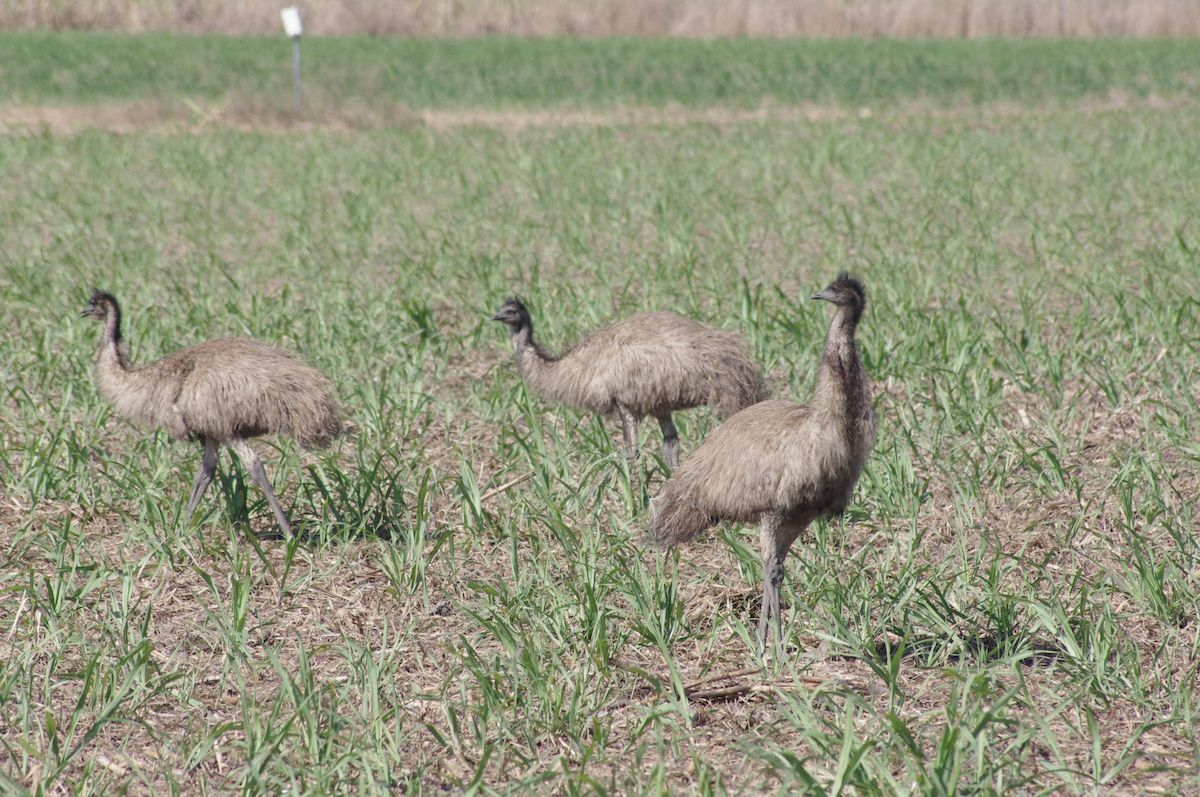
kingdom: Animalia
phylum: Chordata
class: Aves
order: Casuariiformes
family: Dromaiidae
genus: Dromaius
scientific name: Dromaius novaehollandiae
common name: Emu
